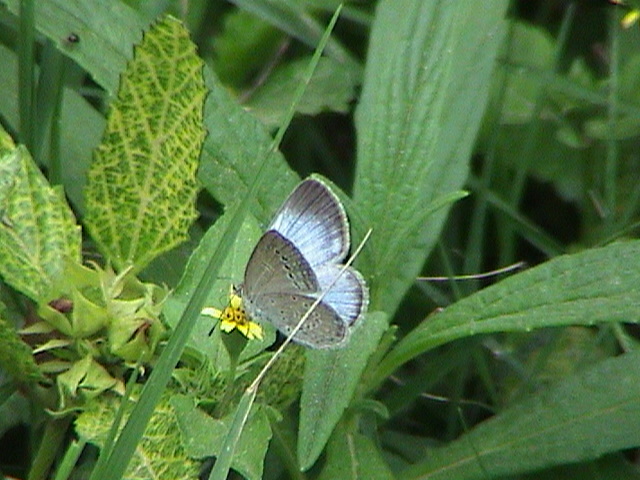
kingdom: Animalia
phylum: Arthropoda
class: Insecta
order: Lepidoptera
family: Lycaenidae
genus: Pseudozizeeria
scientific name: Pseudozizeeria maha
